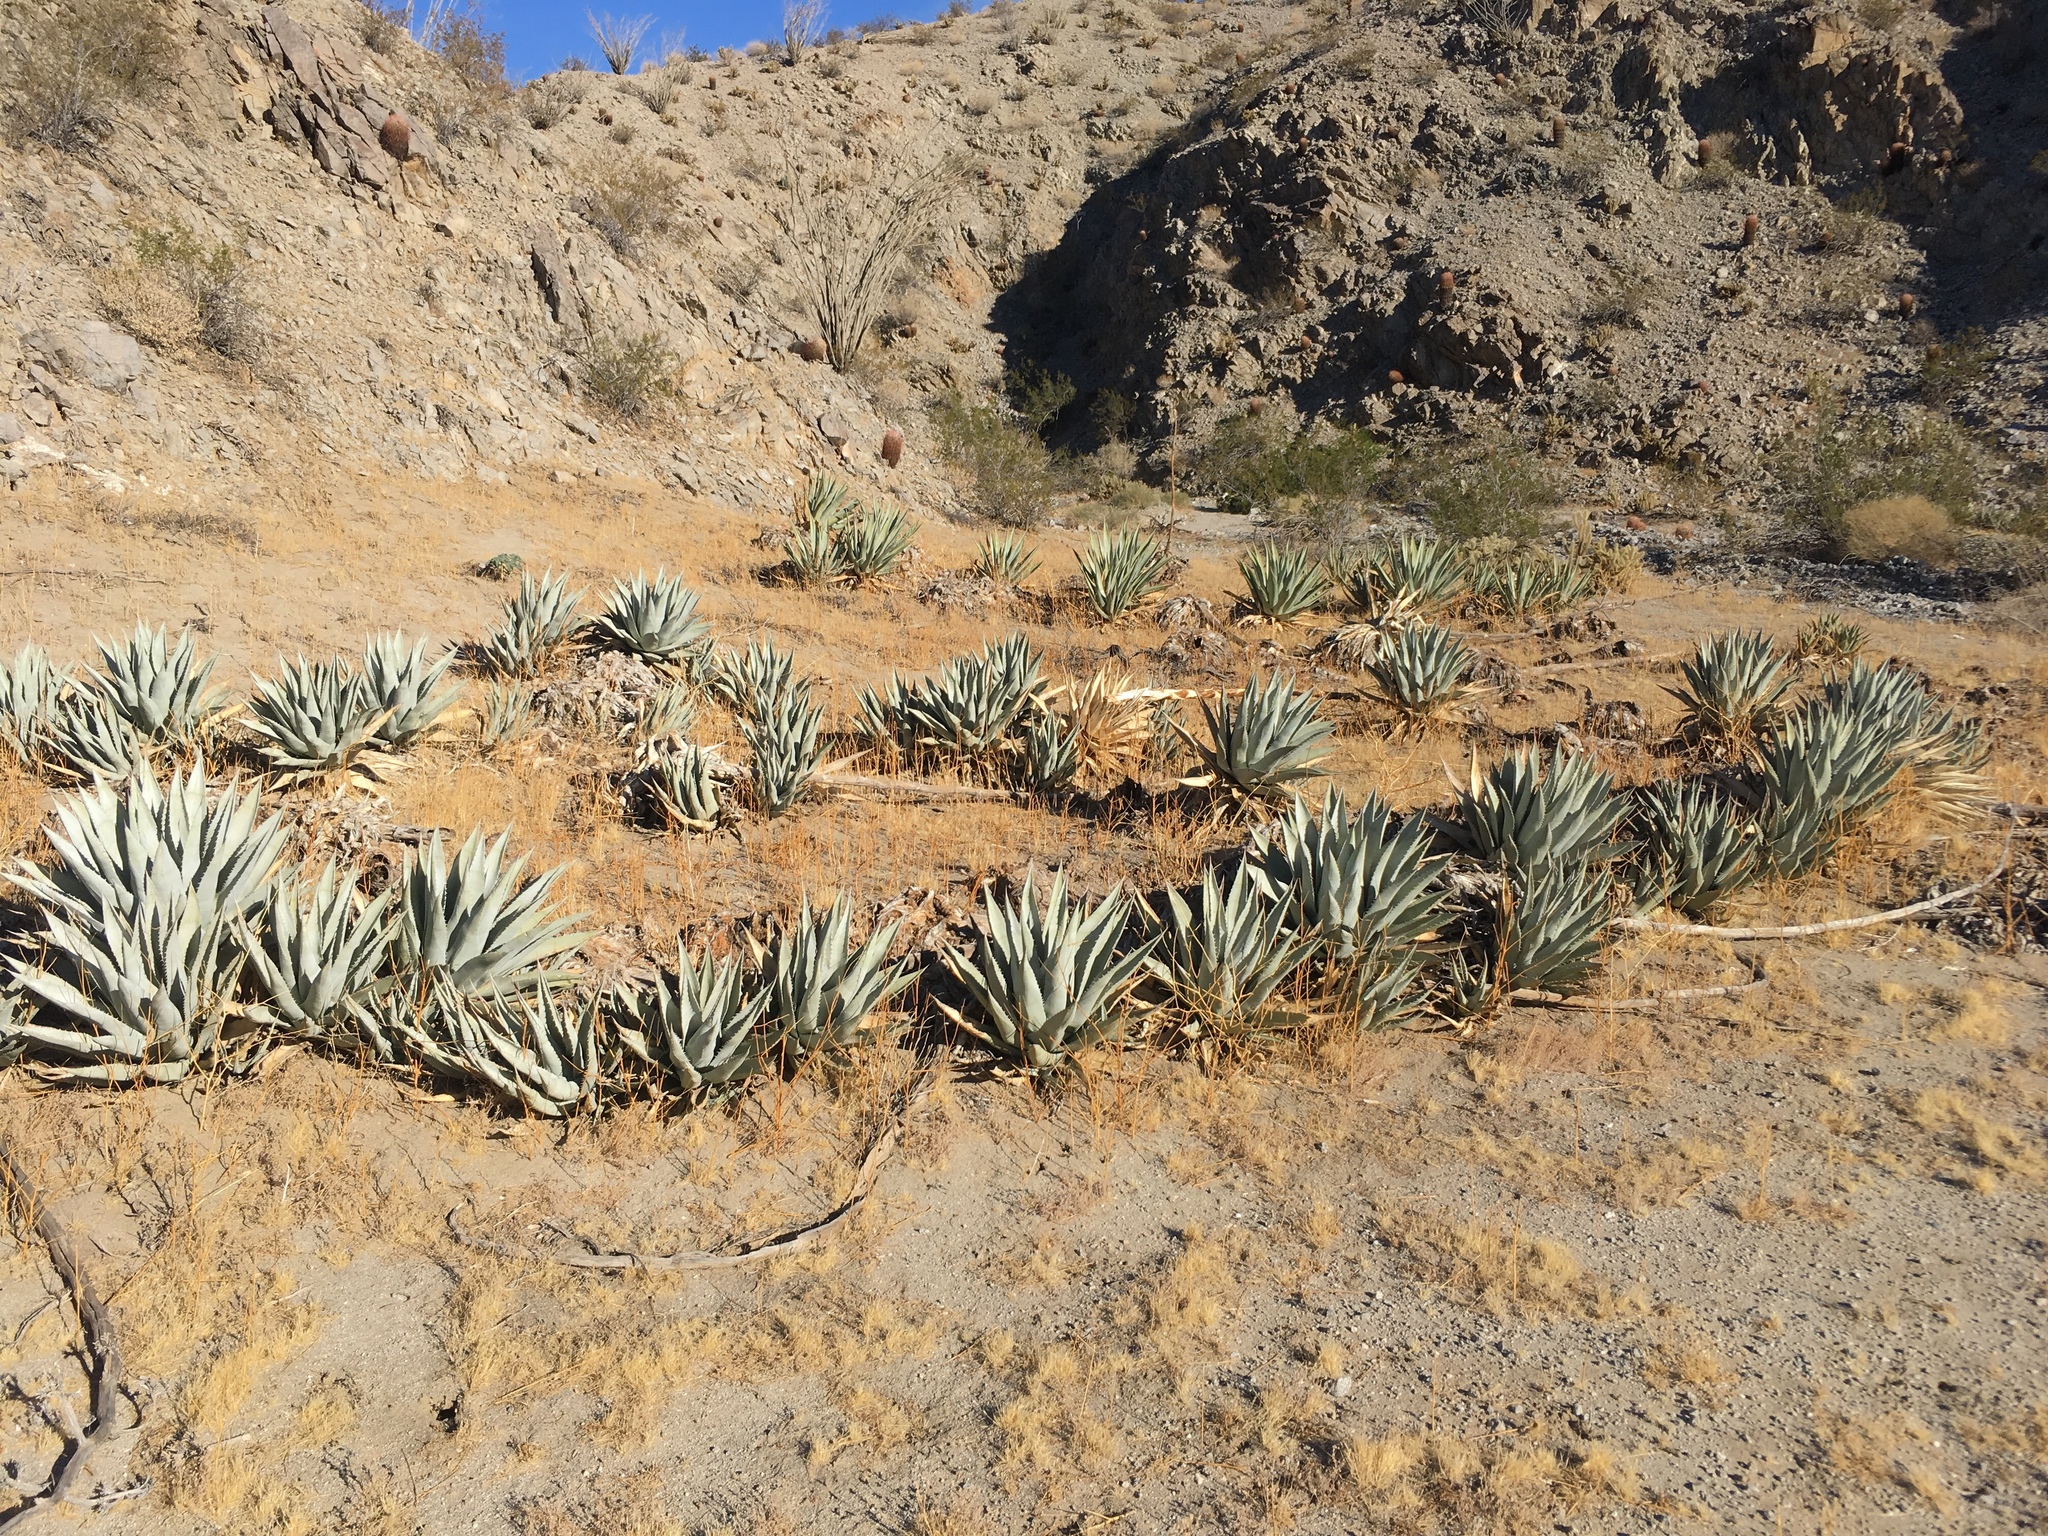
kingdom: Plantae
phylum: Tracheophyta
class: Liliopsida
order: Asparagales
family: Asparagaceae
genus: Agave
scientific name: Agave deserti
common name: Desert agave
